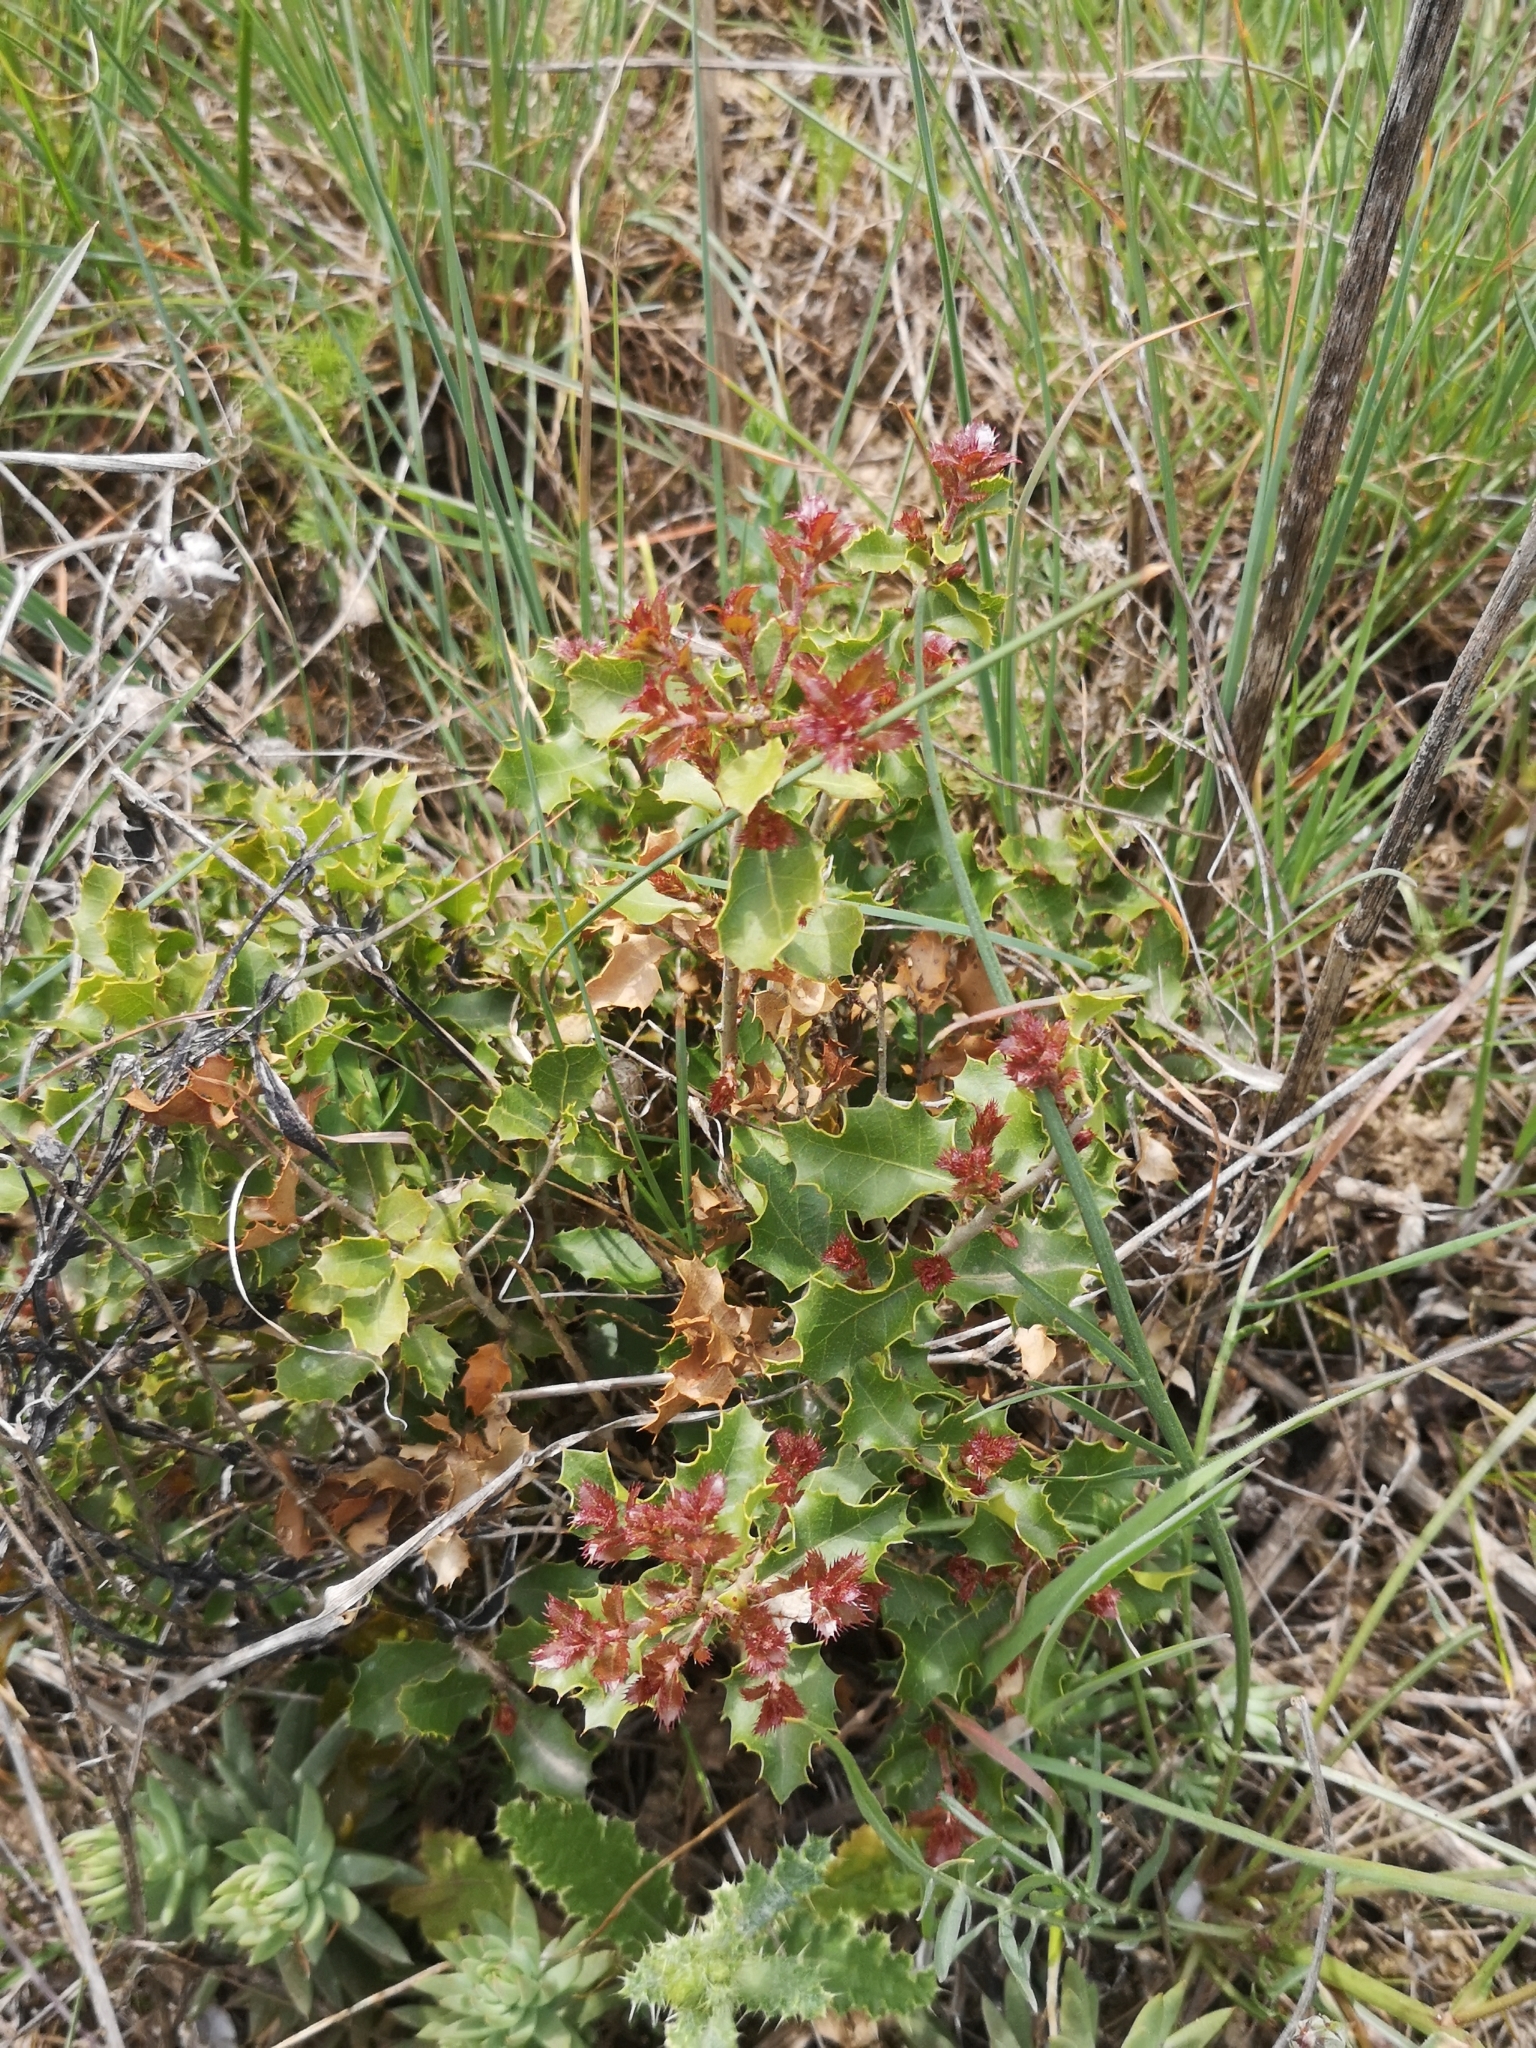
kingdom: Plantae
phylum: Tracheophyta
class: Magnoliopsida
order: Fagales
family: Fagaceae
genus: Quercus
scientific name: Quercus coccifera
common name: Kermes oak
